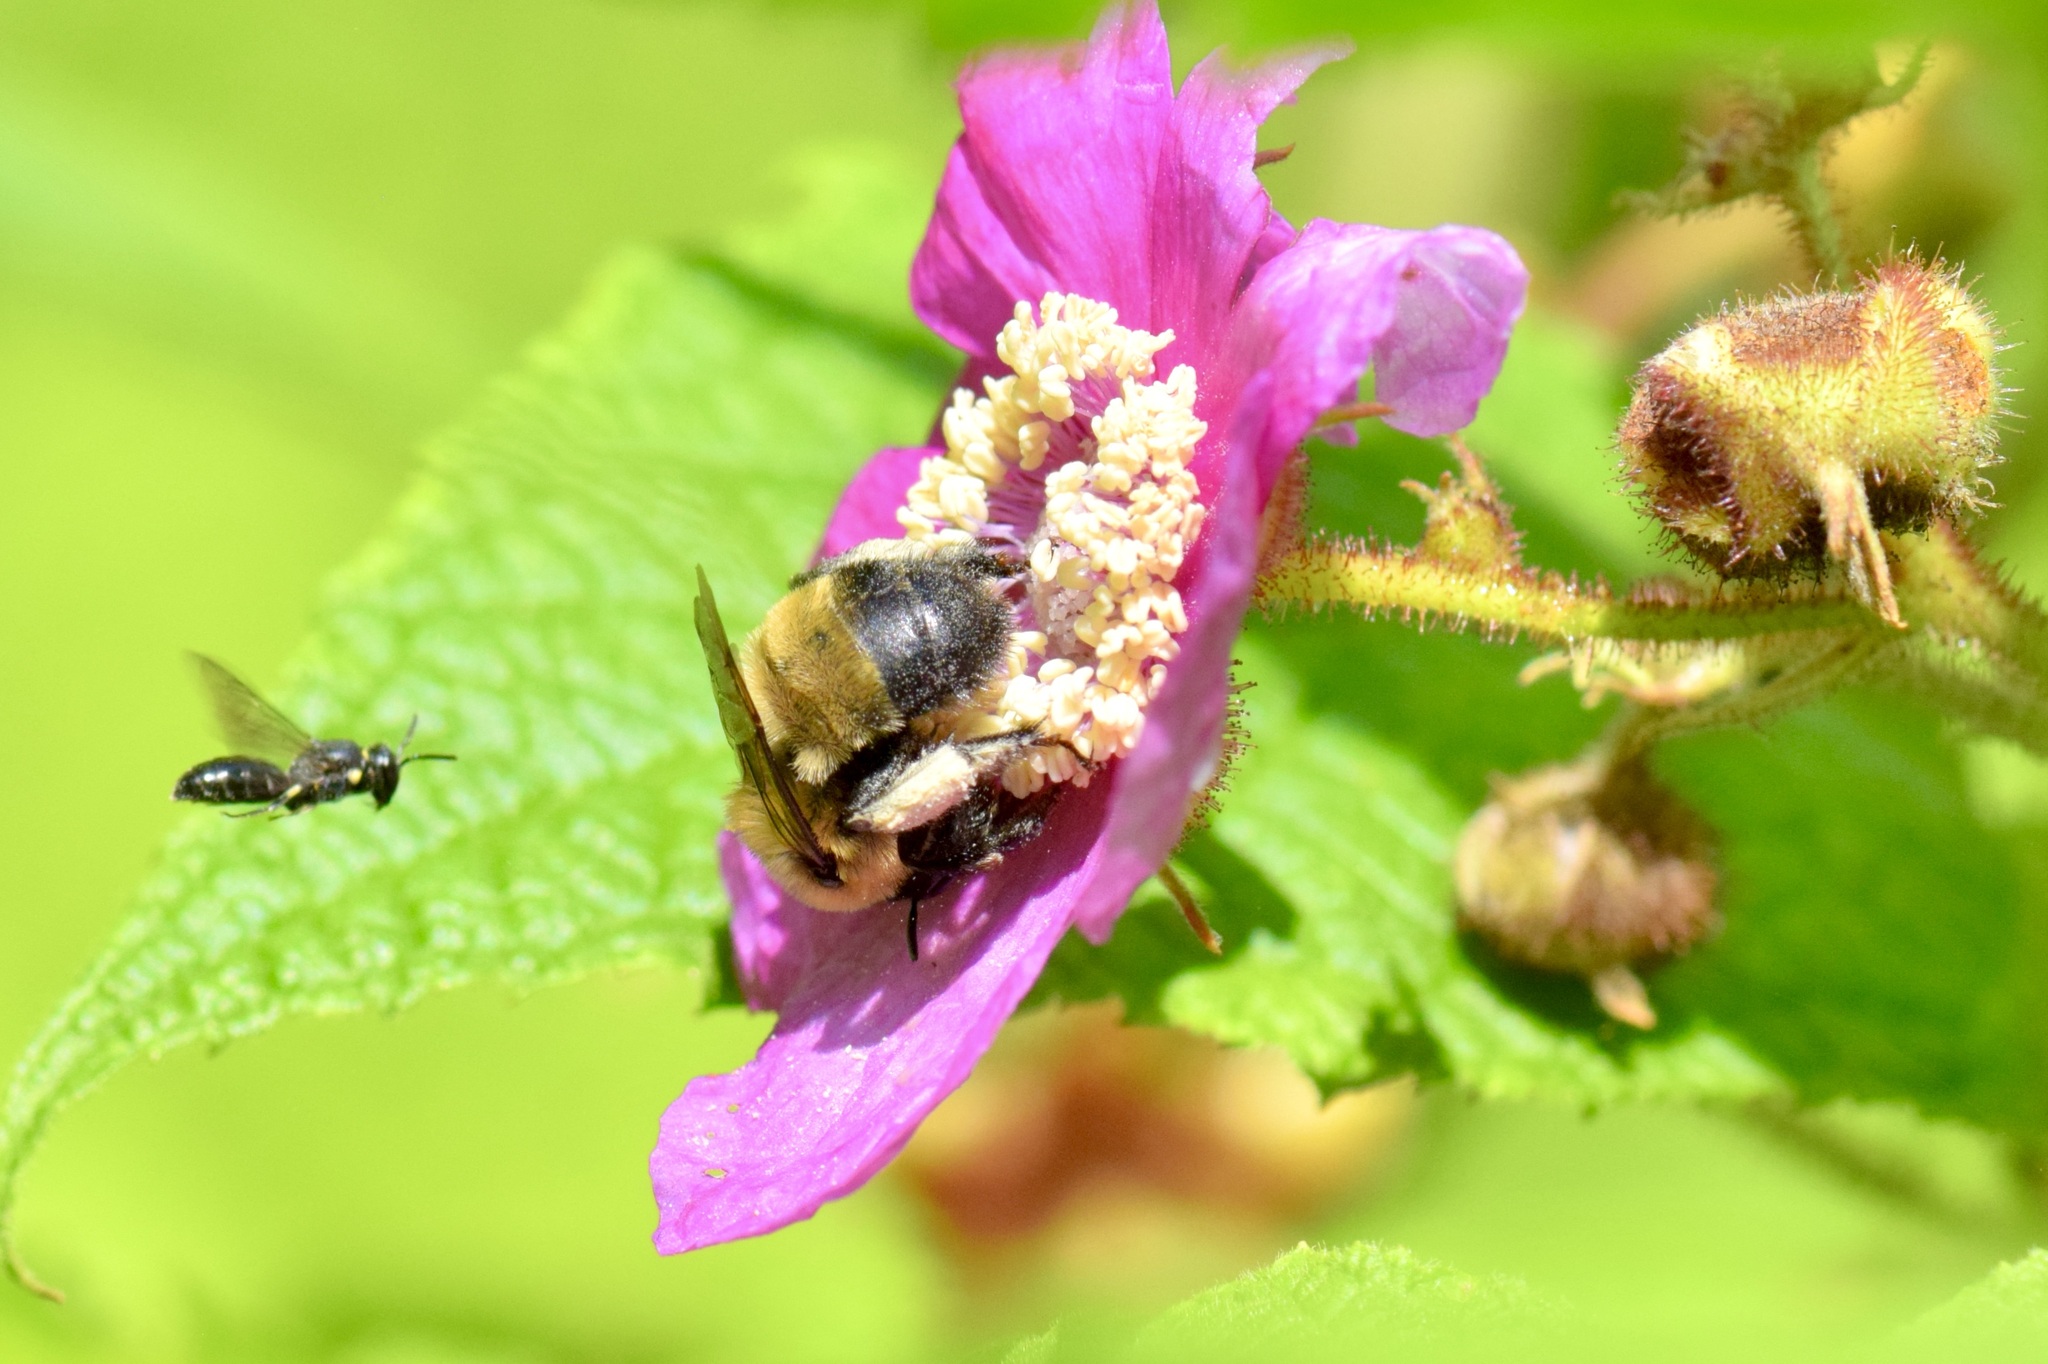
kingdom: Animalia
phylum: Arthropoda
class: Insecta
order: Hymenoptera
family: Apidae
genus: Anthophora
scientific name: Anthophora bomboides
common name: Bumble-bee-mimic digger bee
